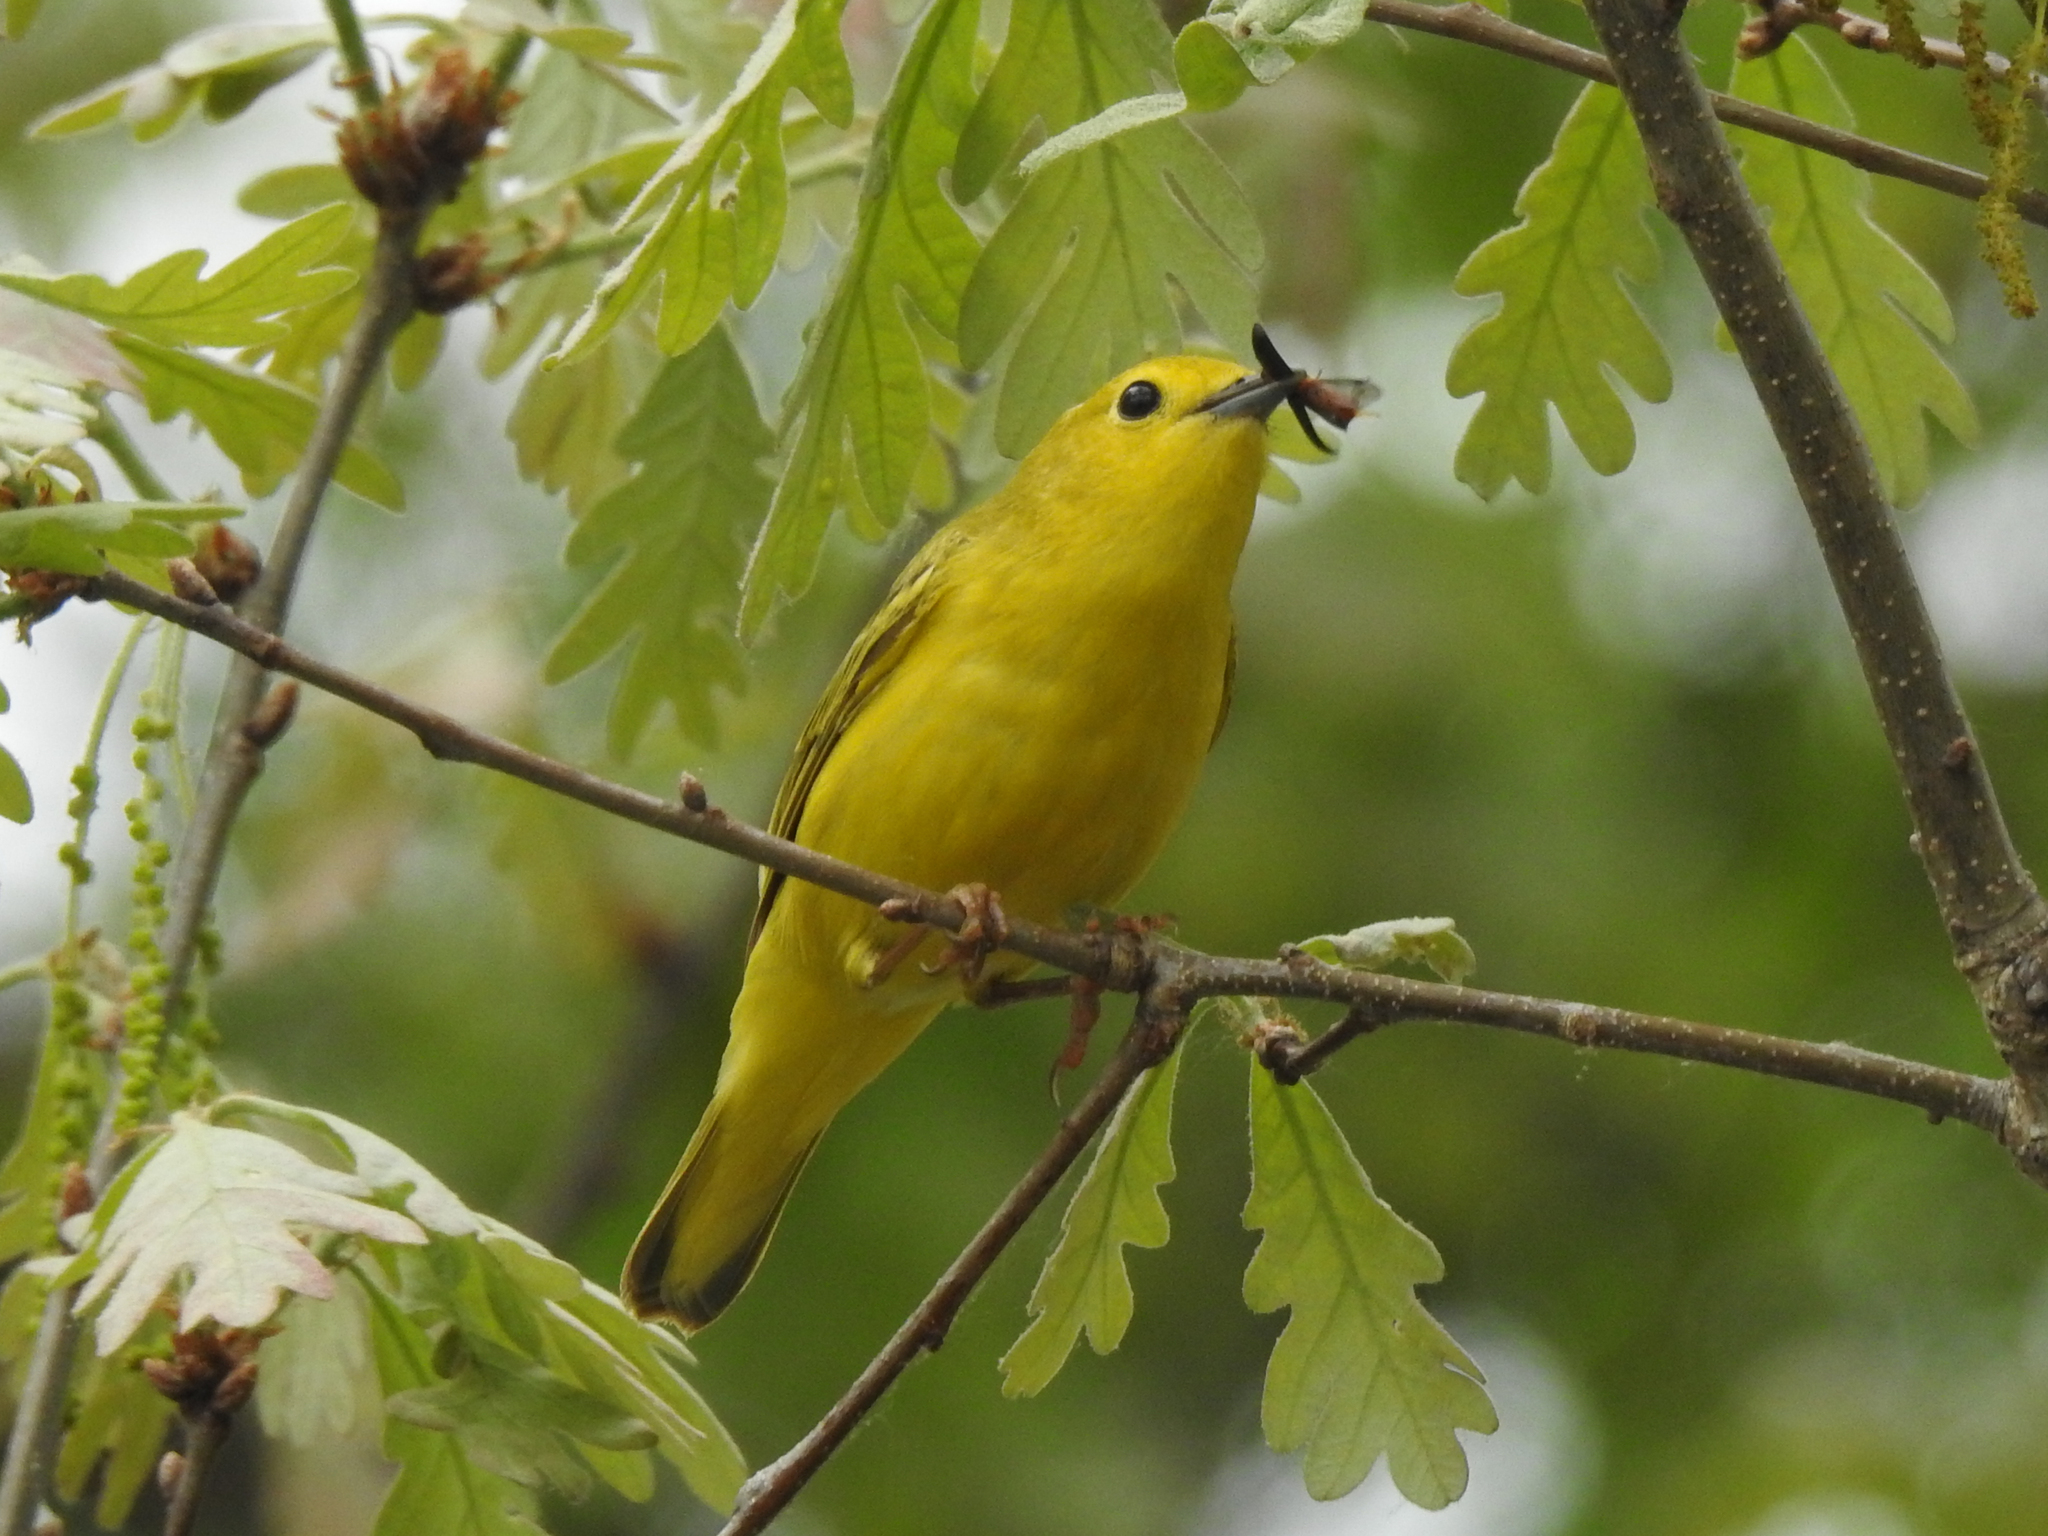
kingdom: Animalia
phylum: Chordata
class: Aves
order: Passeriformes
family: Parulidae
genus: Setophaga
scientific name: Setophaga petechia
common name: Yellow warbler
